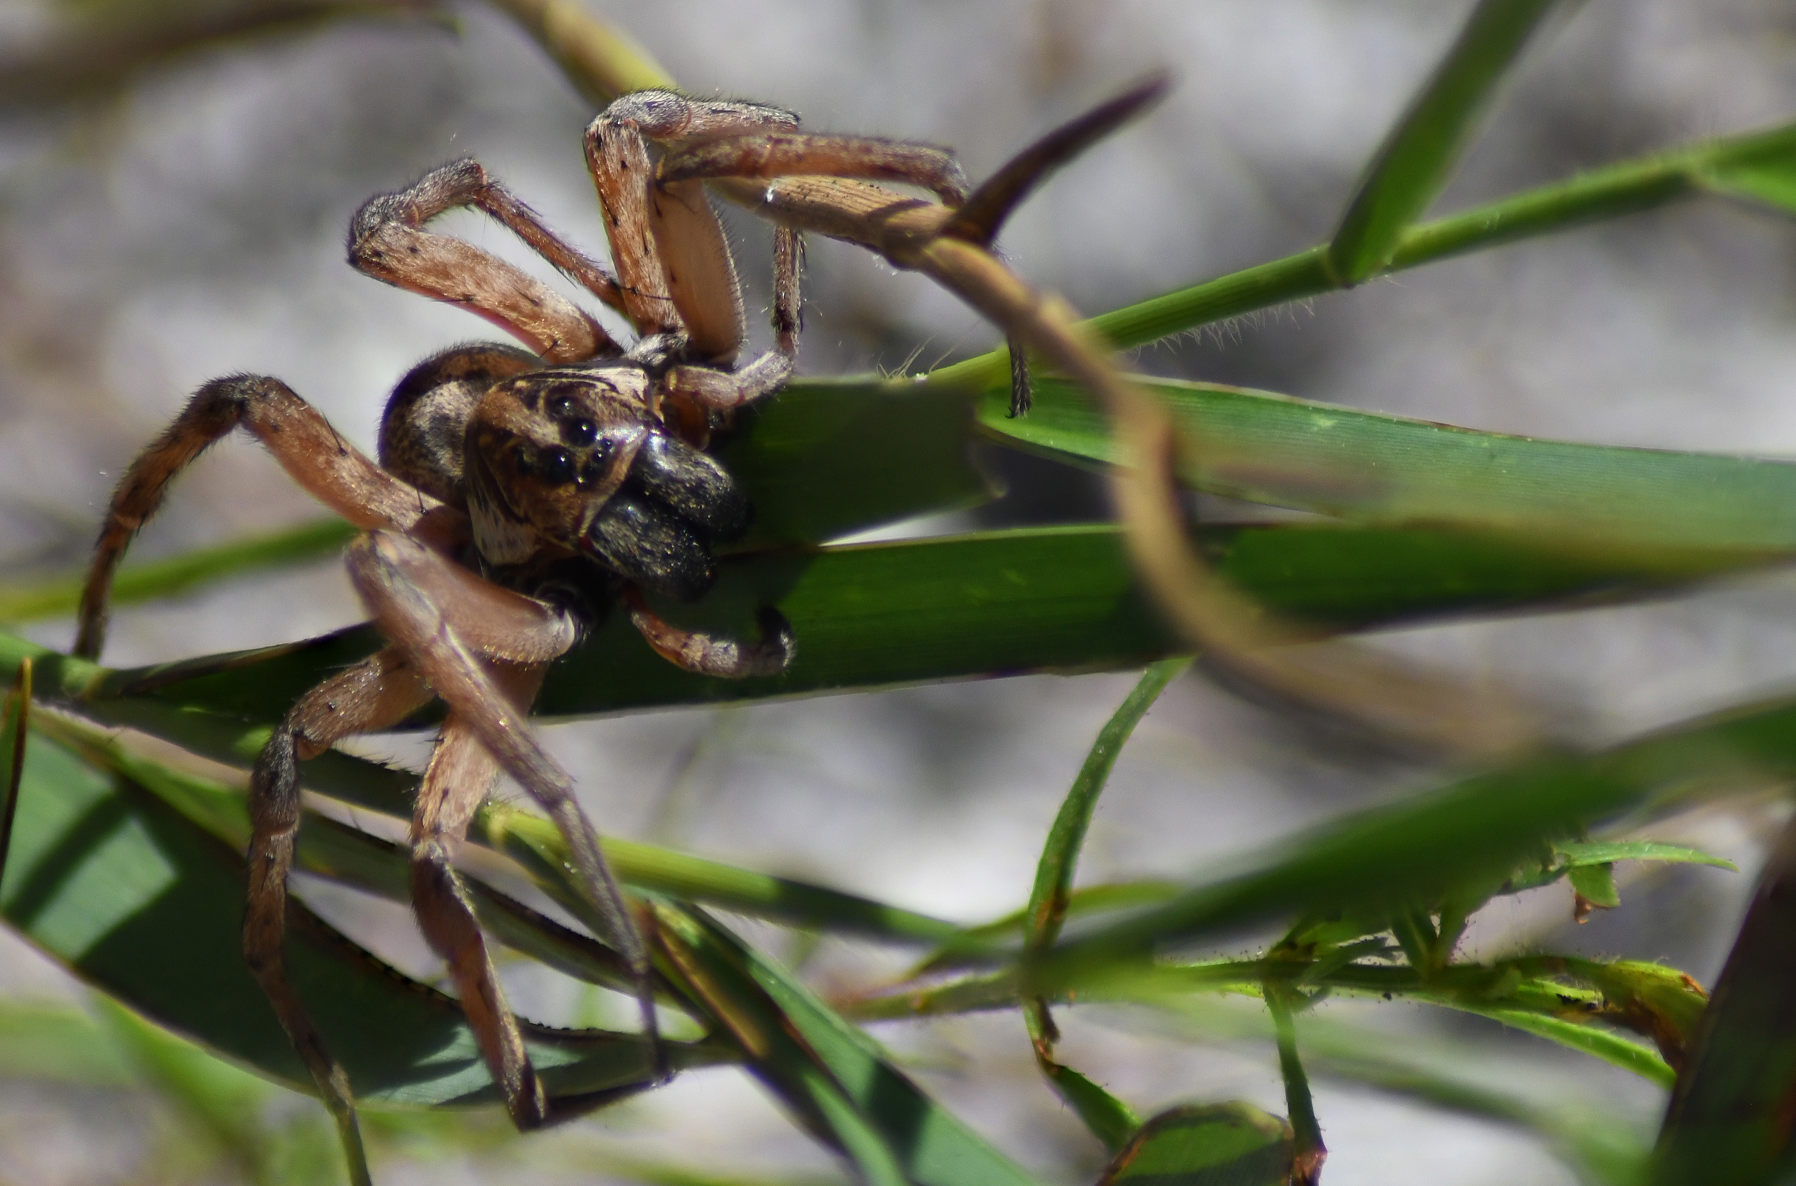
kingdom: Animalia
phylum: Arthropoda
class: Arachnida
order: Araneae
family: Lycosidae
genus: Hogna
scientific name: Hogna lenta
